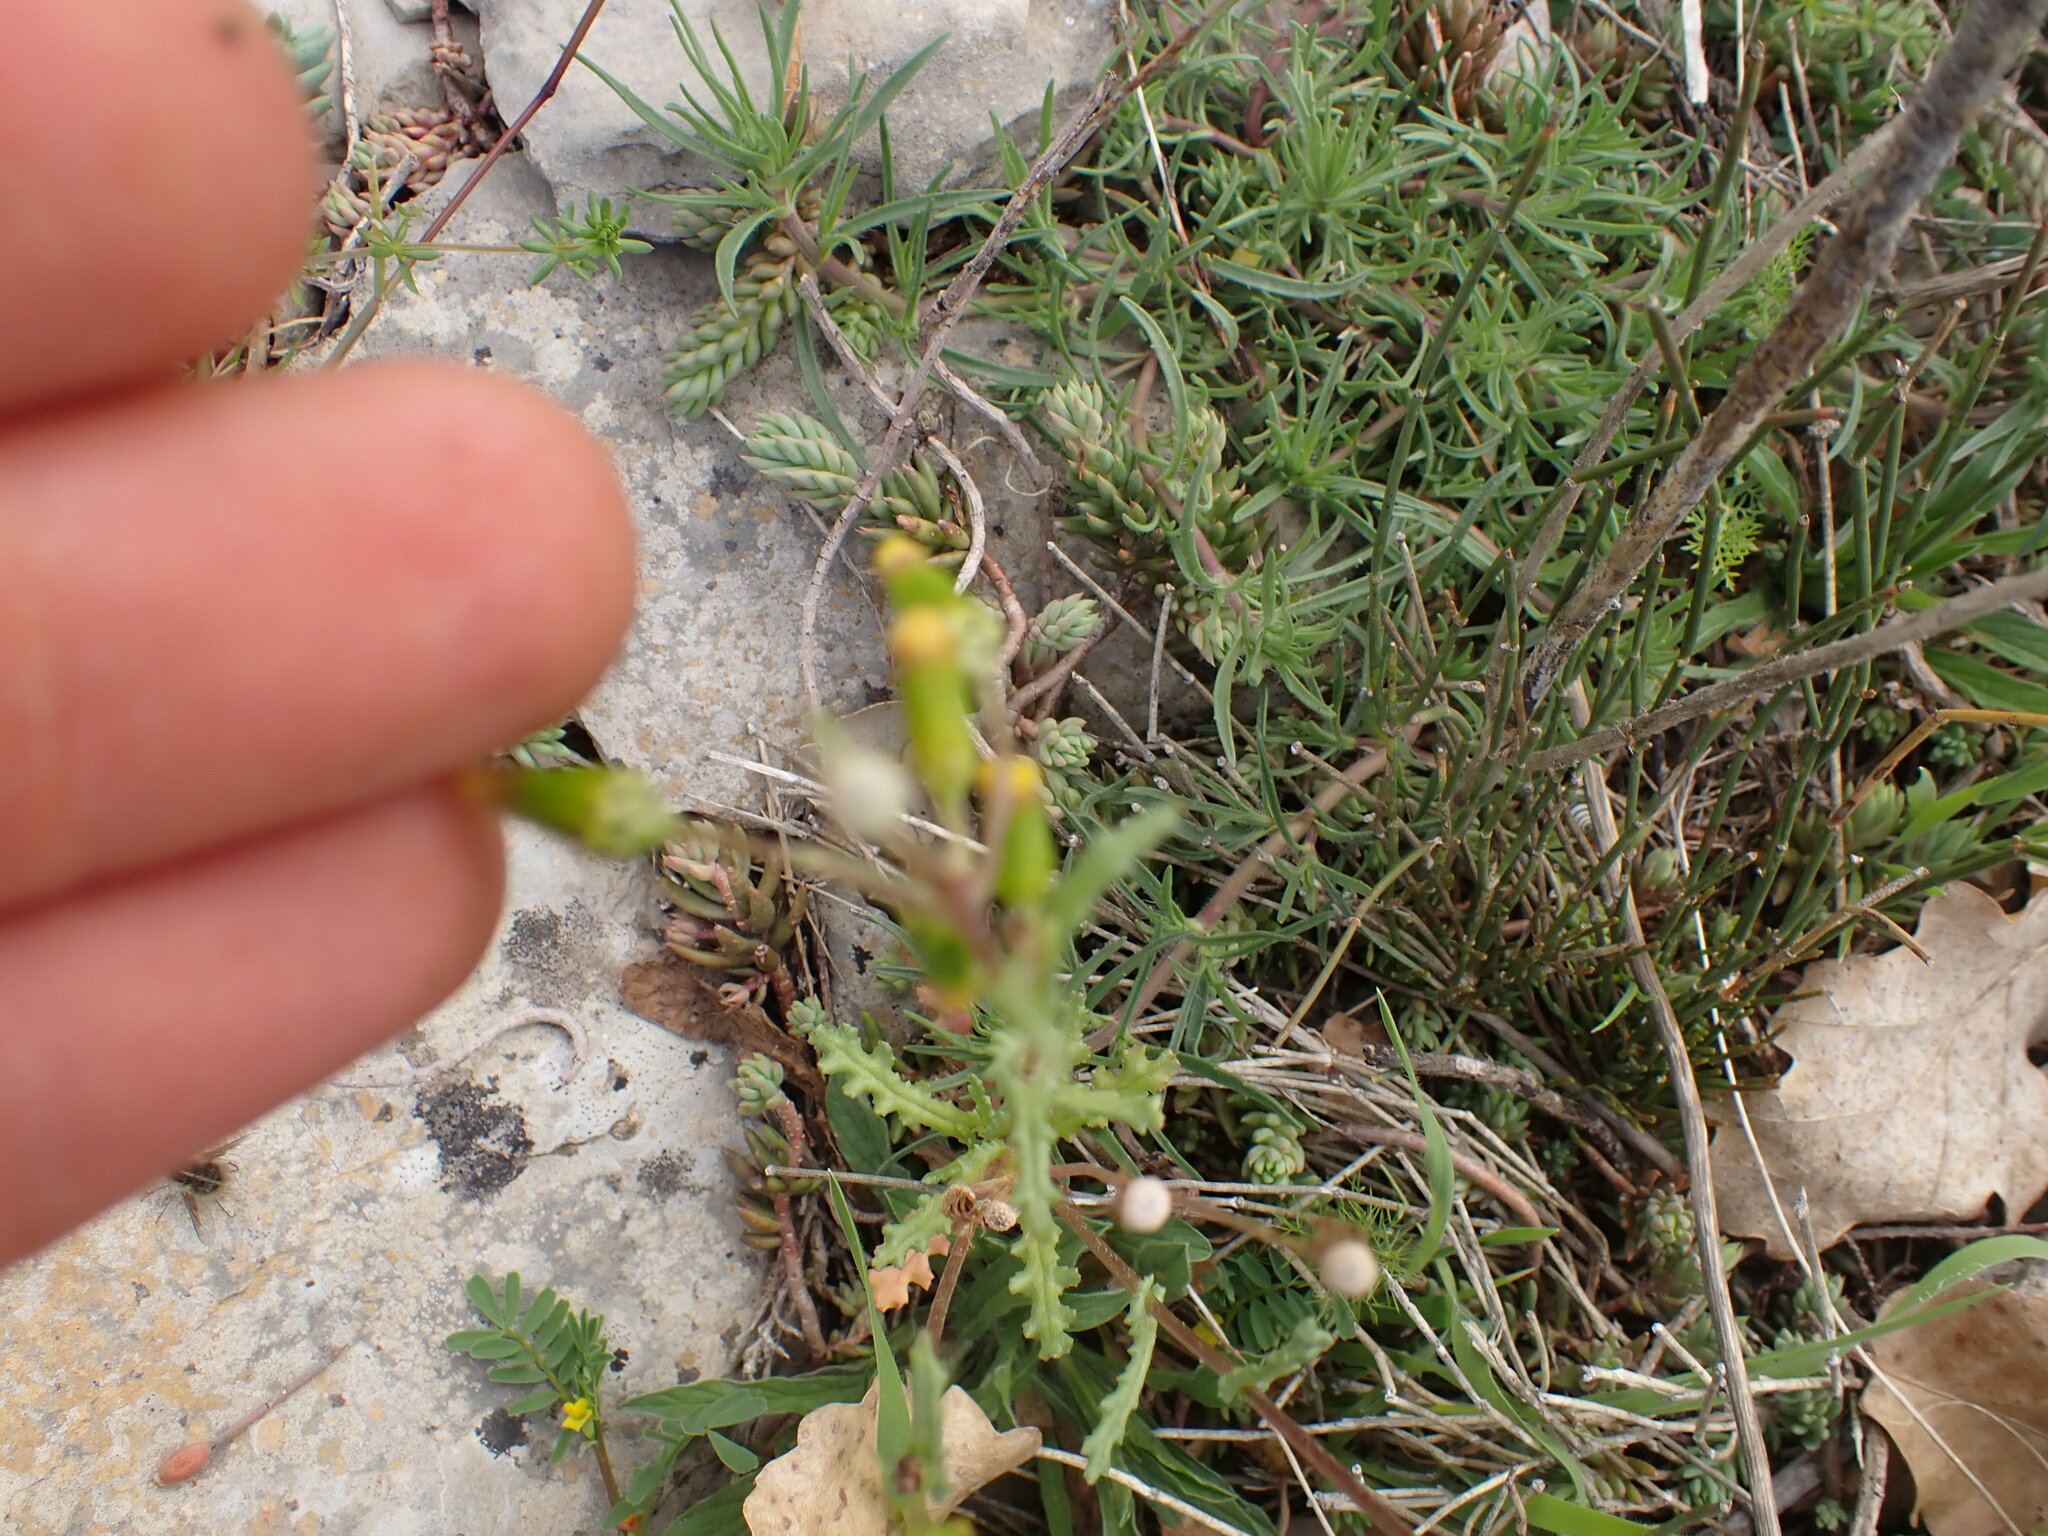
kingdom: Plantae
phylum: Tracheophyta
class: Magnoliopsida
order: Asterales
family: Asteraceae
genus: Senecio
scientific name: Senecio vulgaris
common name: Old-man-in-the-spring
